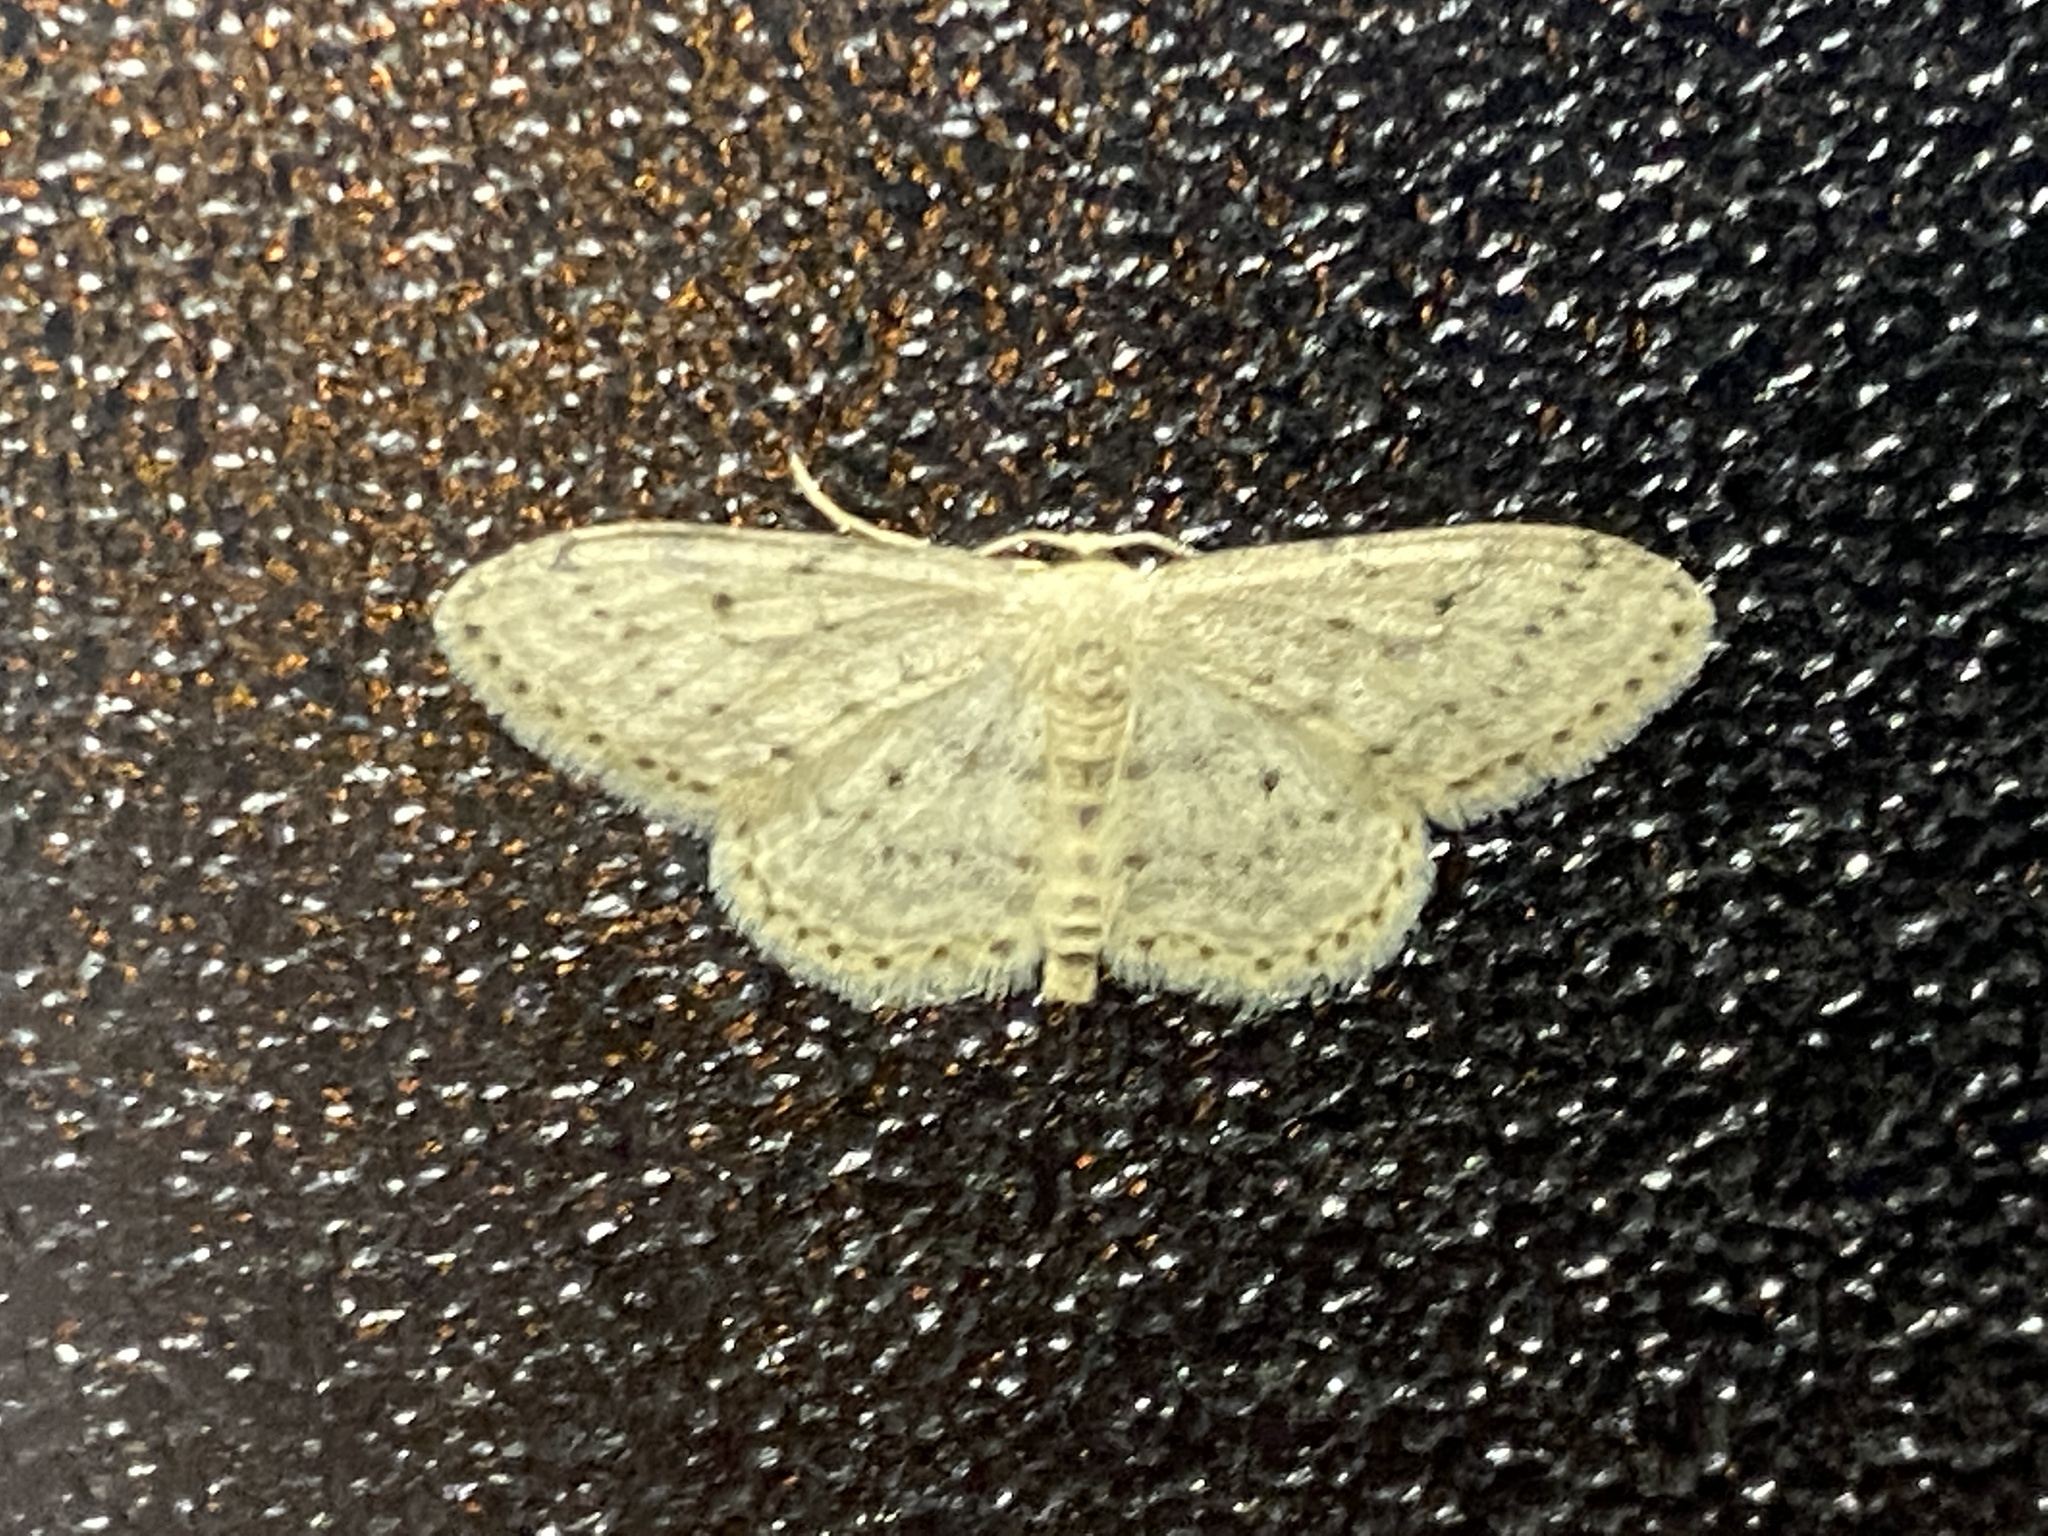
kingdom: Animalia
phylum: Arthropoda
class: Insecta
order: Lepidoptera
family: Geometridae
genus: Idaea
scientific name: Idaea seriata
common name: Small dusty wave
